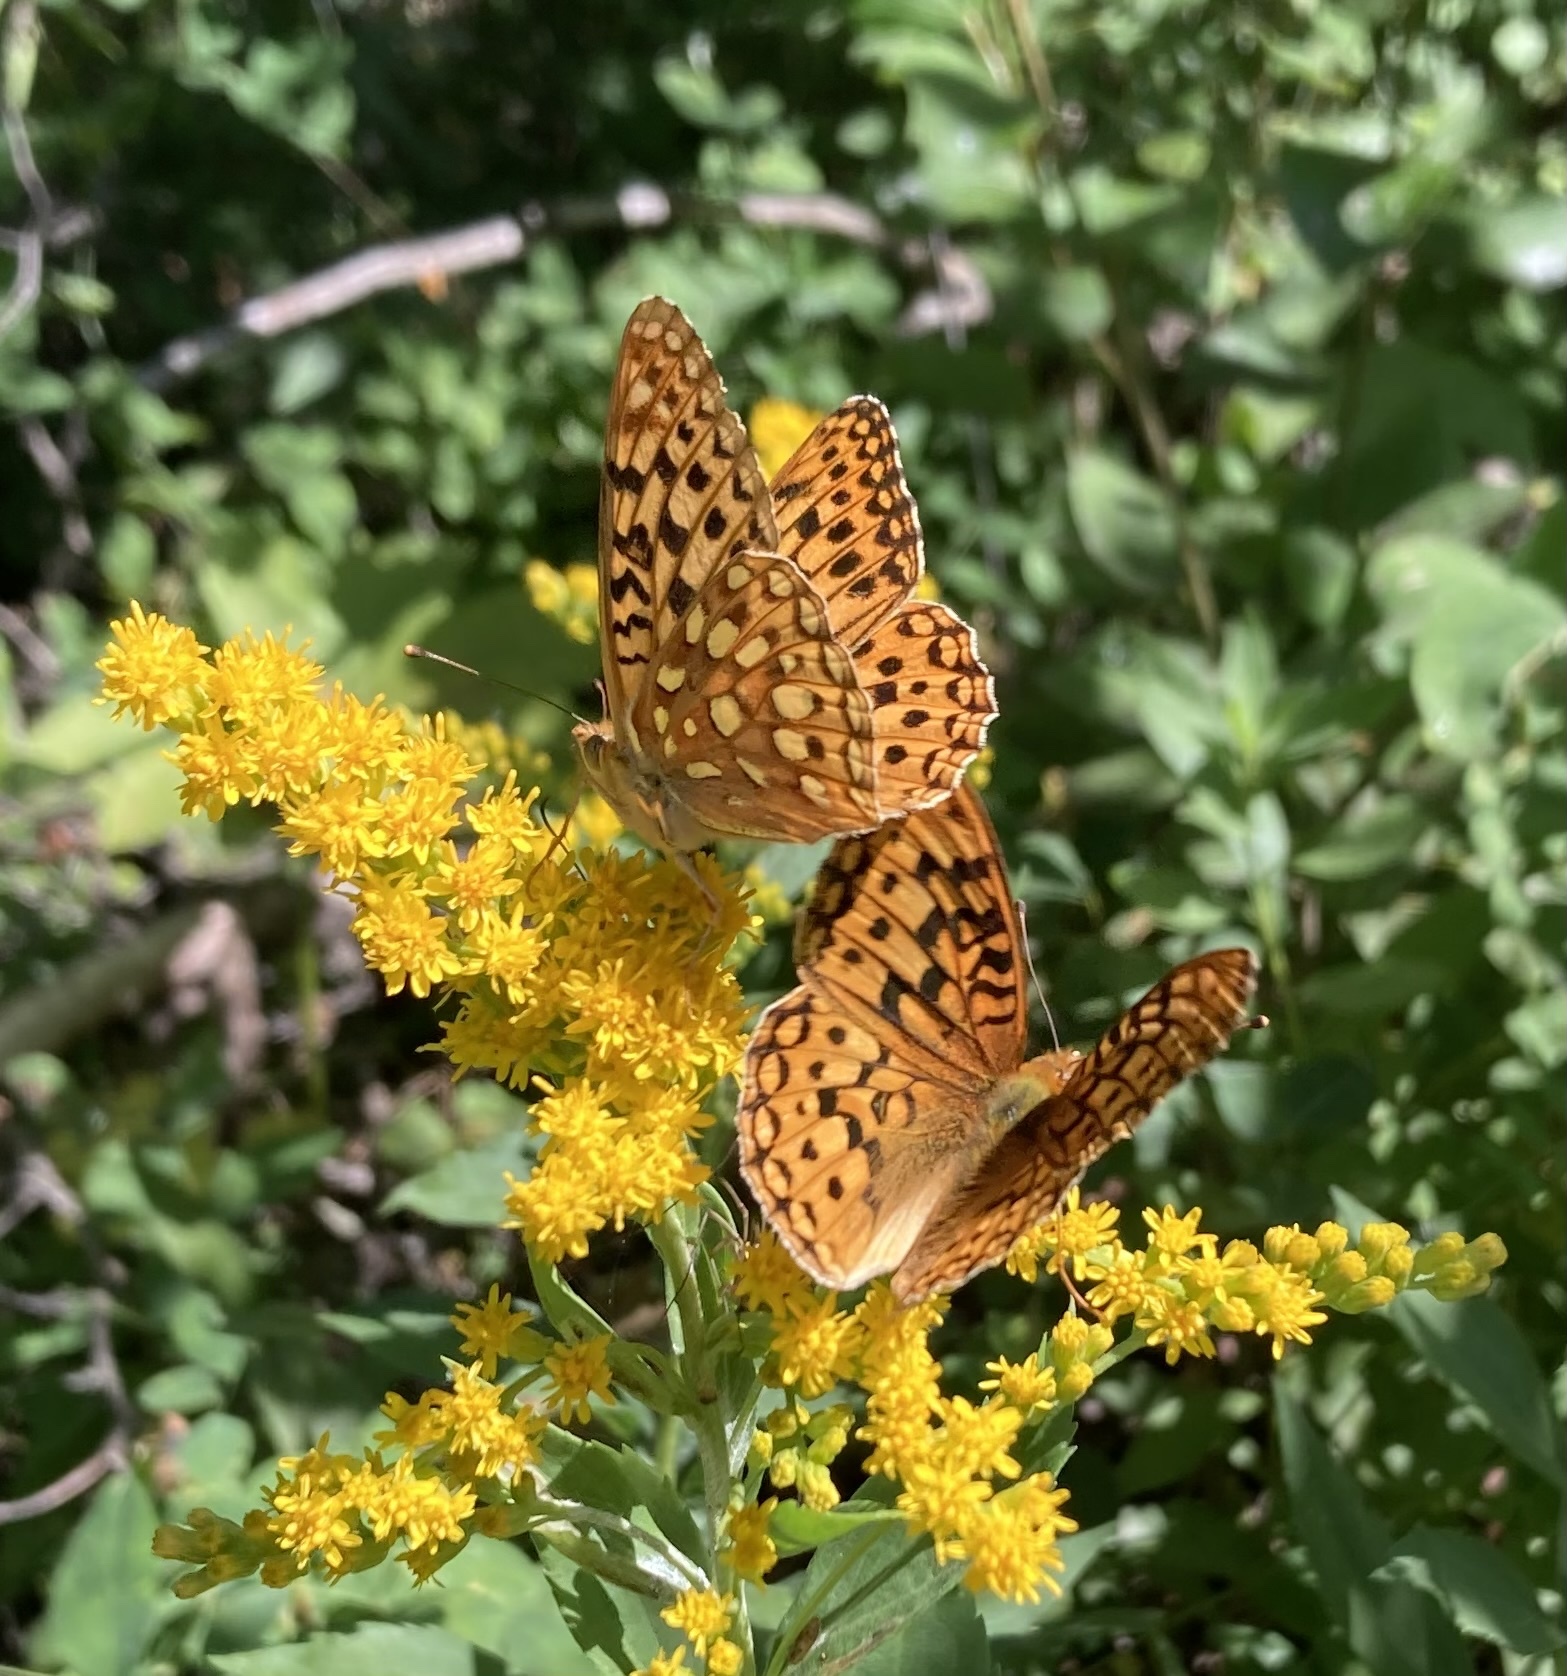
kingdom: Animalia
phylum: Arthropoda
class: Insecta
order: Lepidoptera
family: Nymphalidae
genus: Speyeria
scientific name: Speyeria zerene
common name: Zerene fritillary
